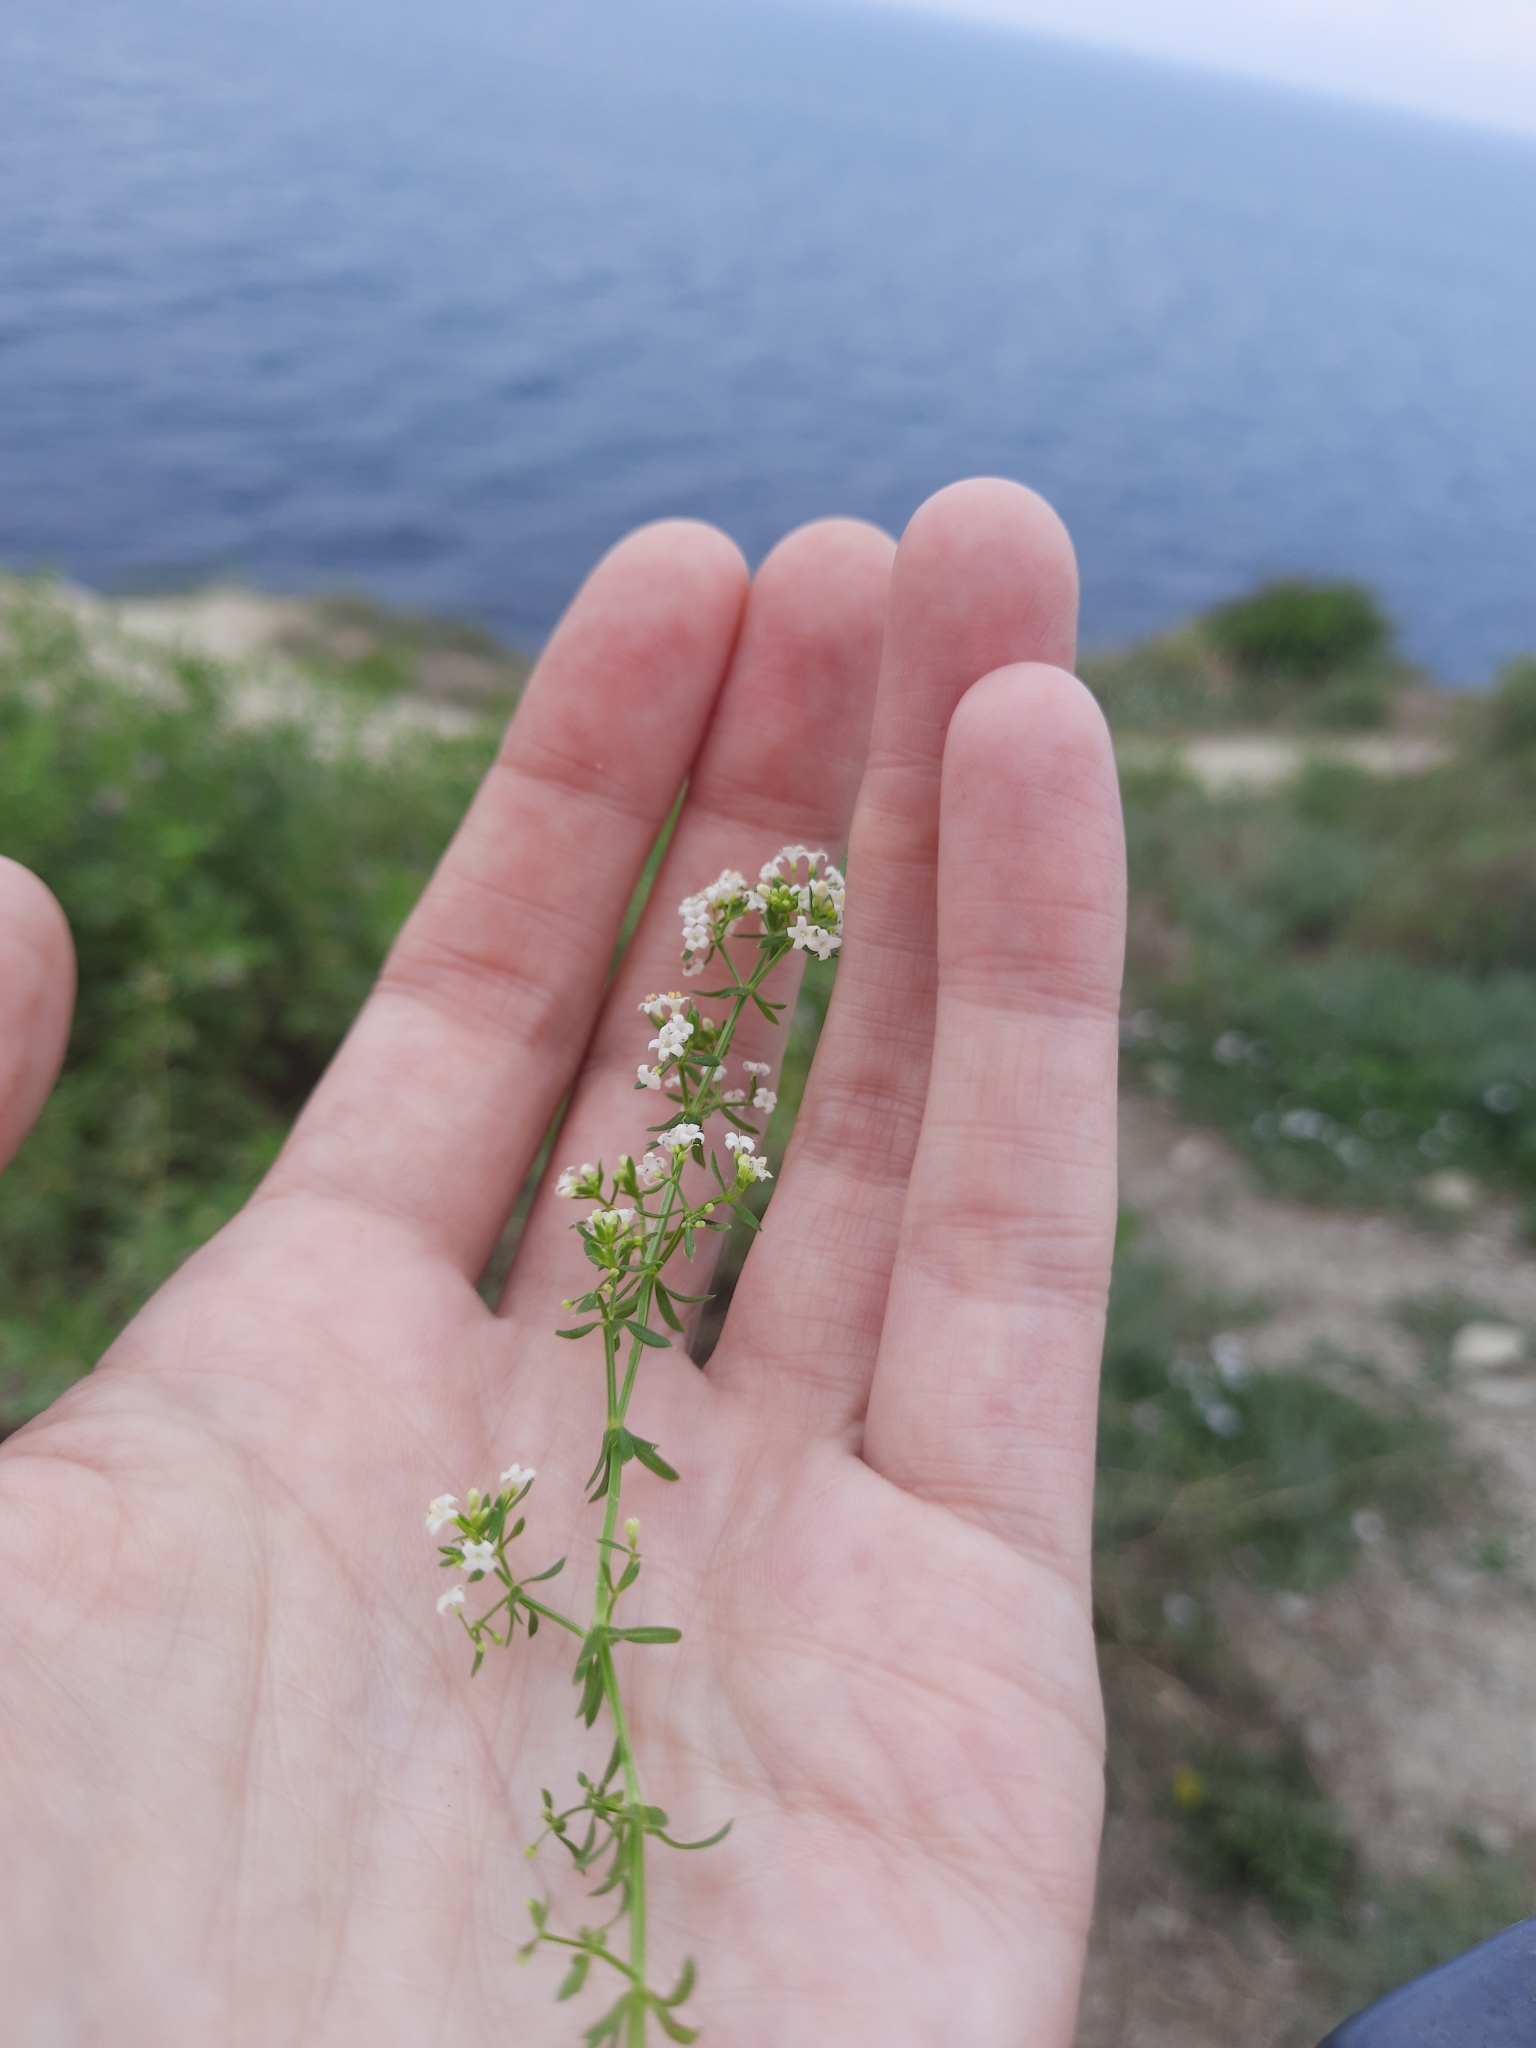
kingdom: Plantae
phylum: Tracheophyta
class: Magnoliopsida
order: Gentianales
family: Rubiaceae
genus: Galium
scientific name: Galium humifusum
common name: Spreading bedstraw
